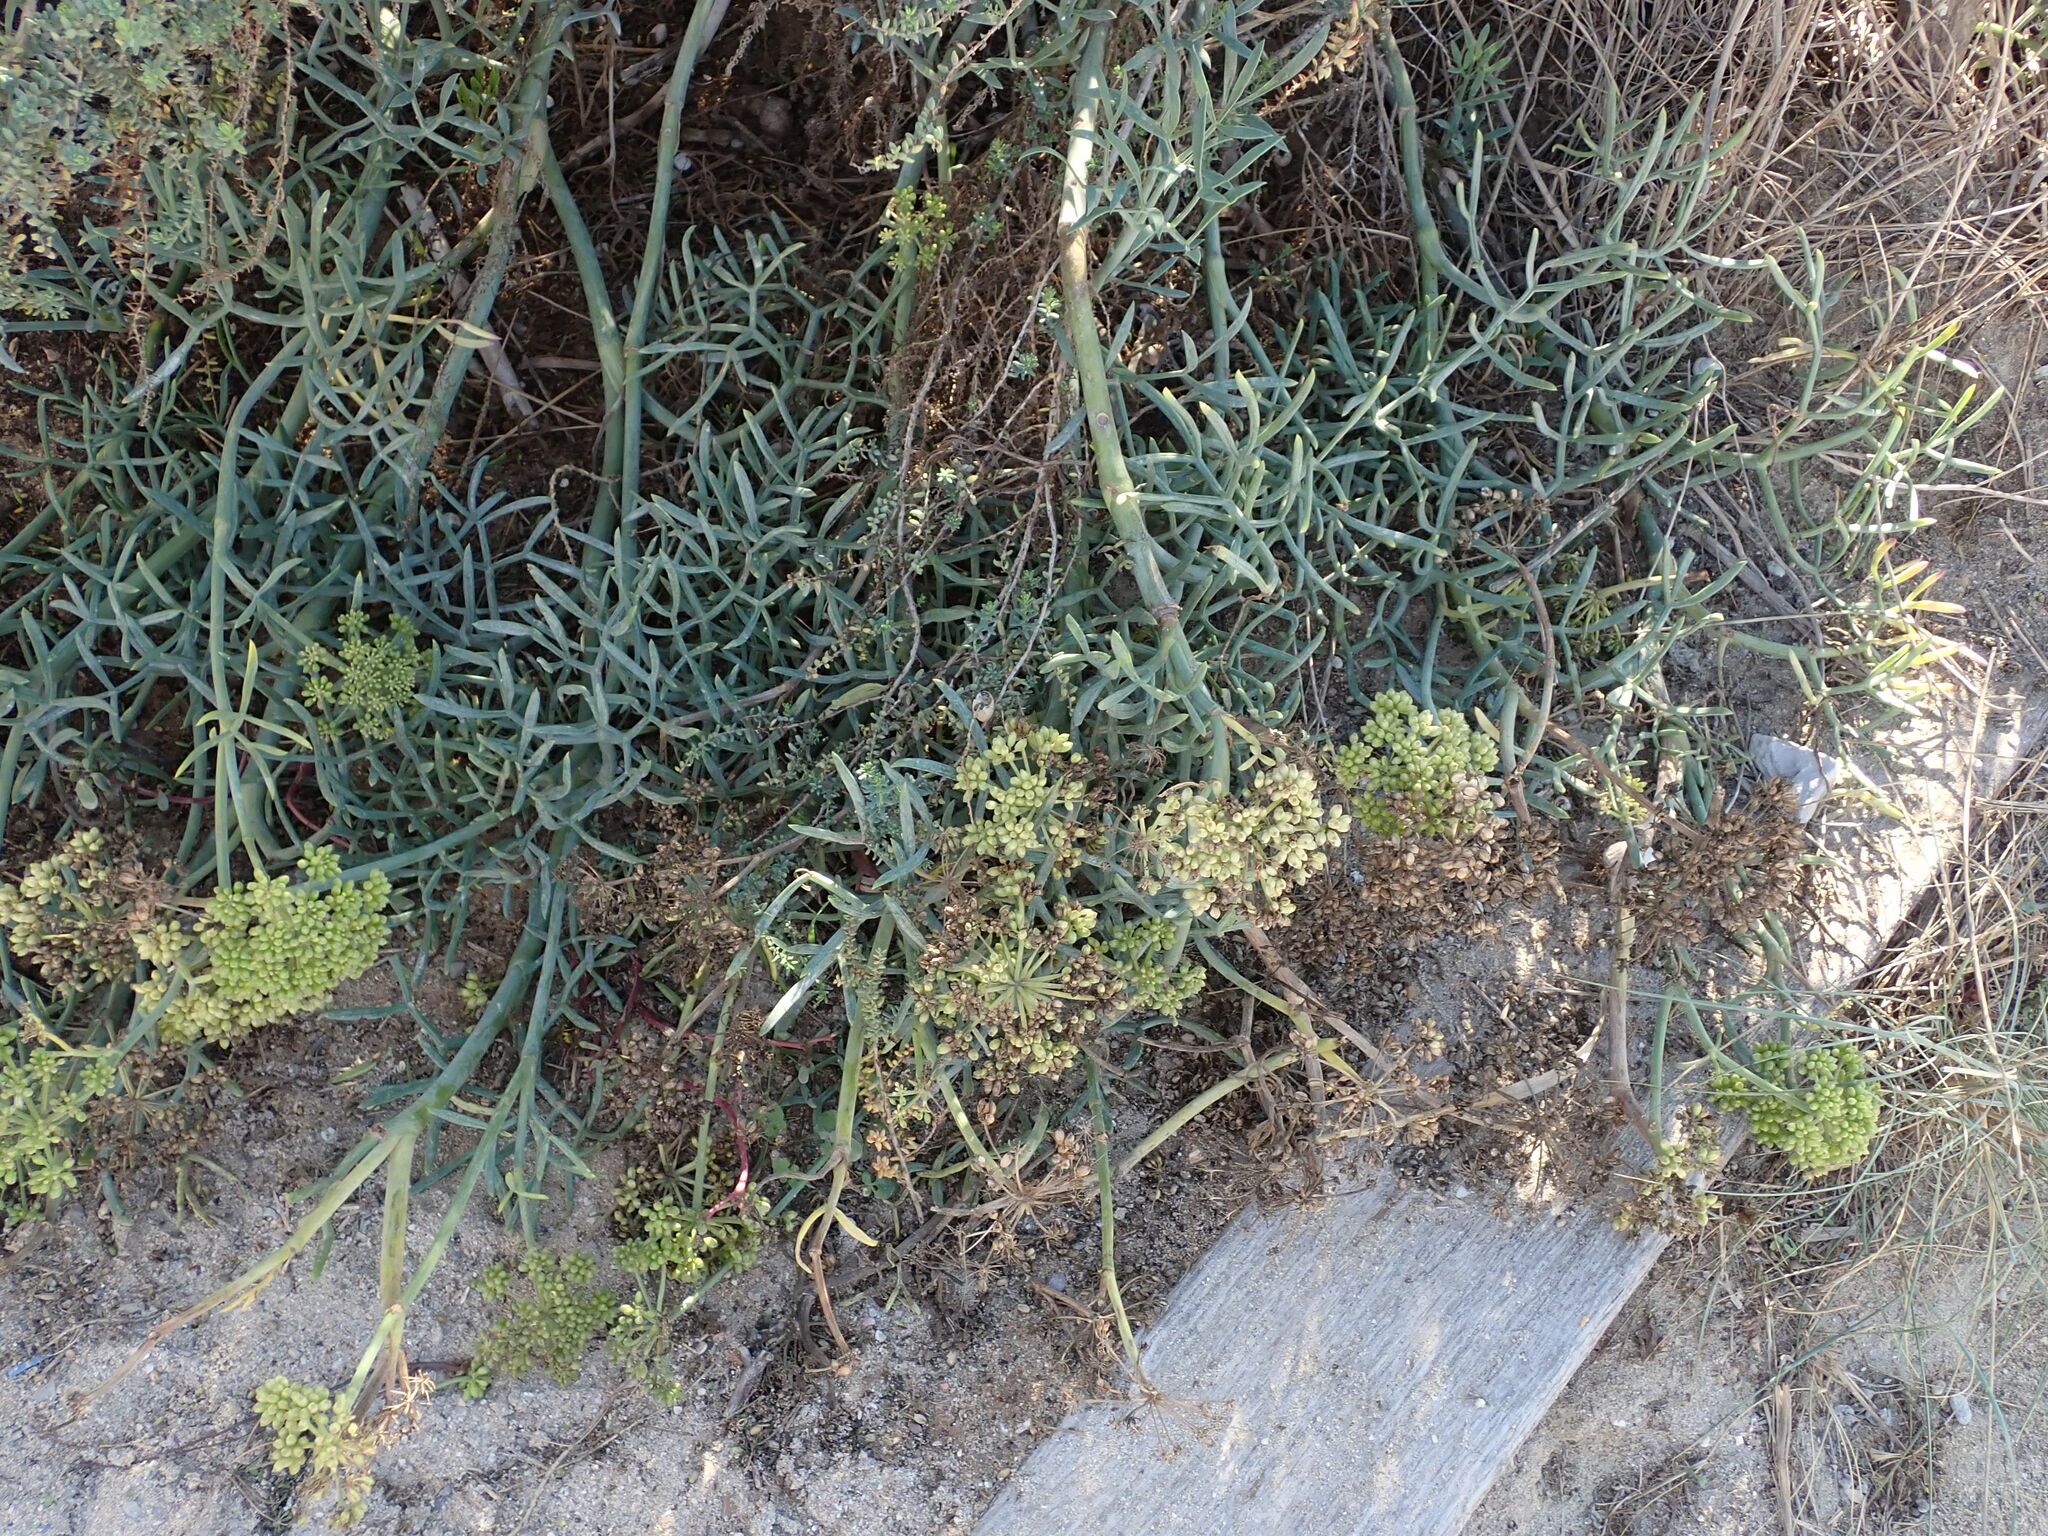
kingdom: Plantae
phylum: Tracheophyta
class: Magnoliopsida
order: Apiales
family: Apiaceae
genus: Crithmum
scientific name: Crithmum maritimum
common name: Rock samphire
